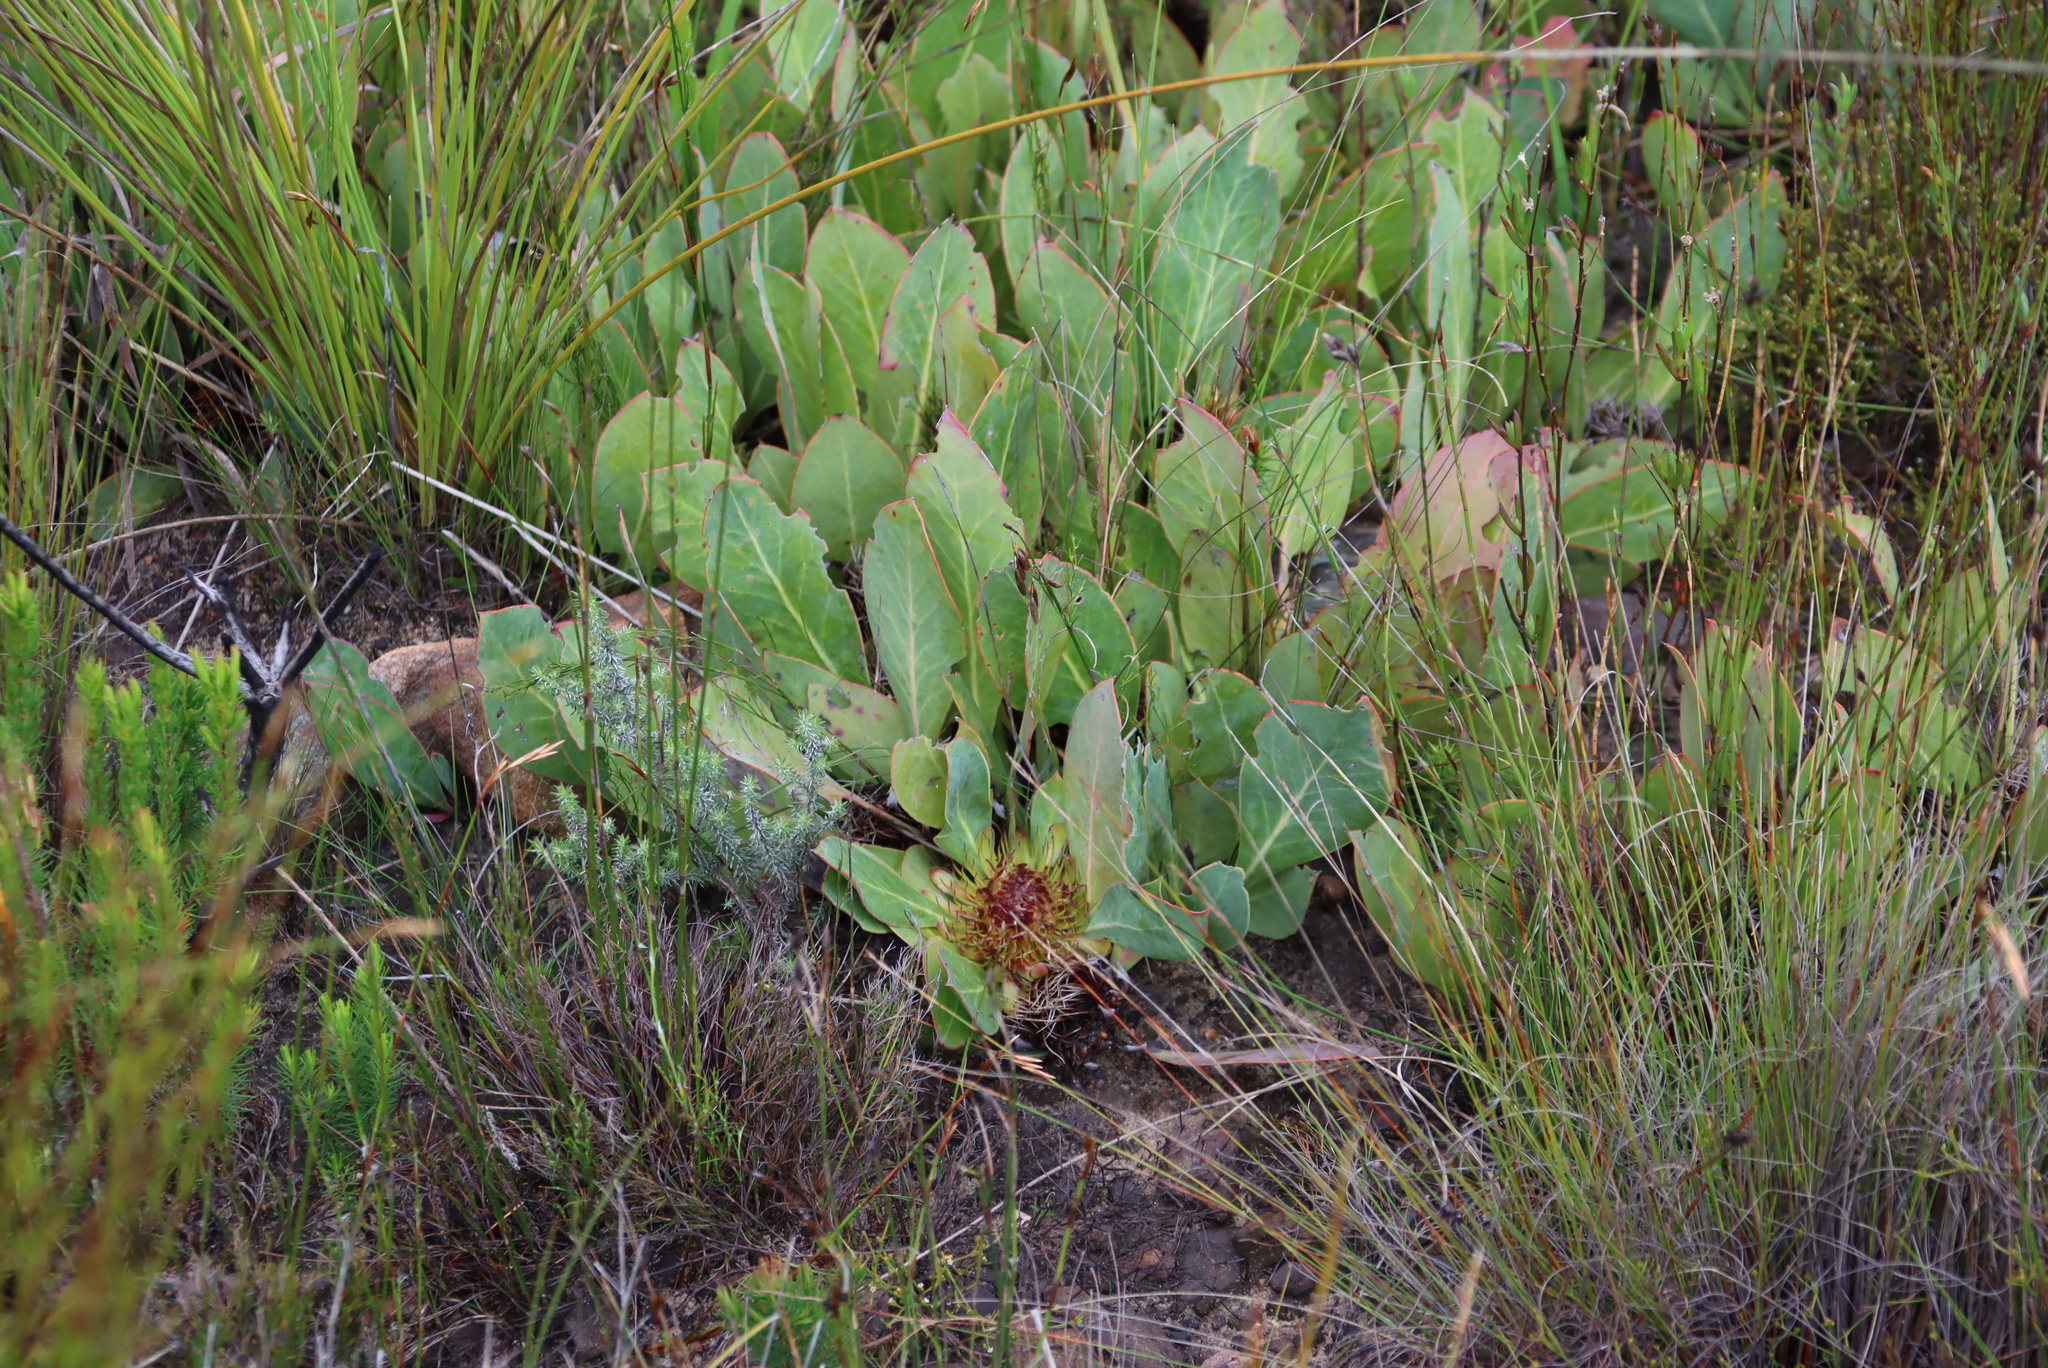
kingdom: Plantae
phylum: Tracheophyta
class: Magnoliopsida
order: Proteales
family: Proteaceae
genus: Protea
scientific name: Protea acaulos
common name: Common ground sugarbush
